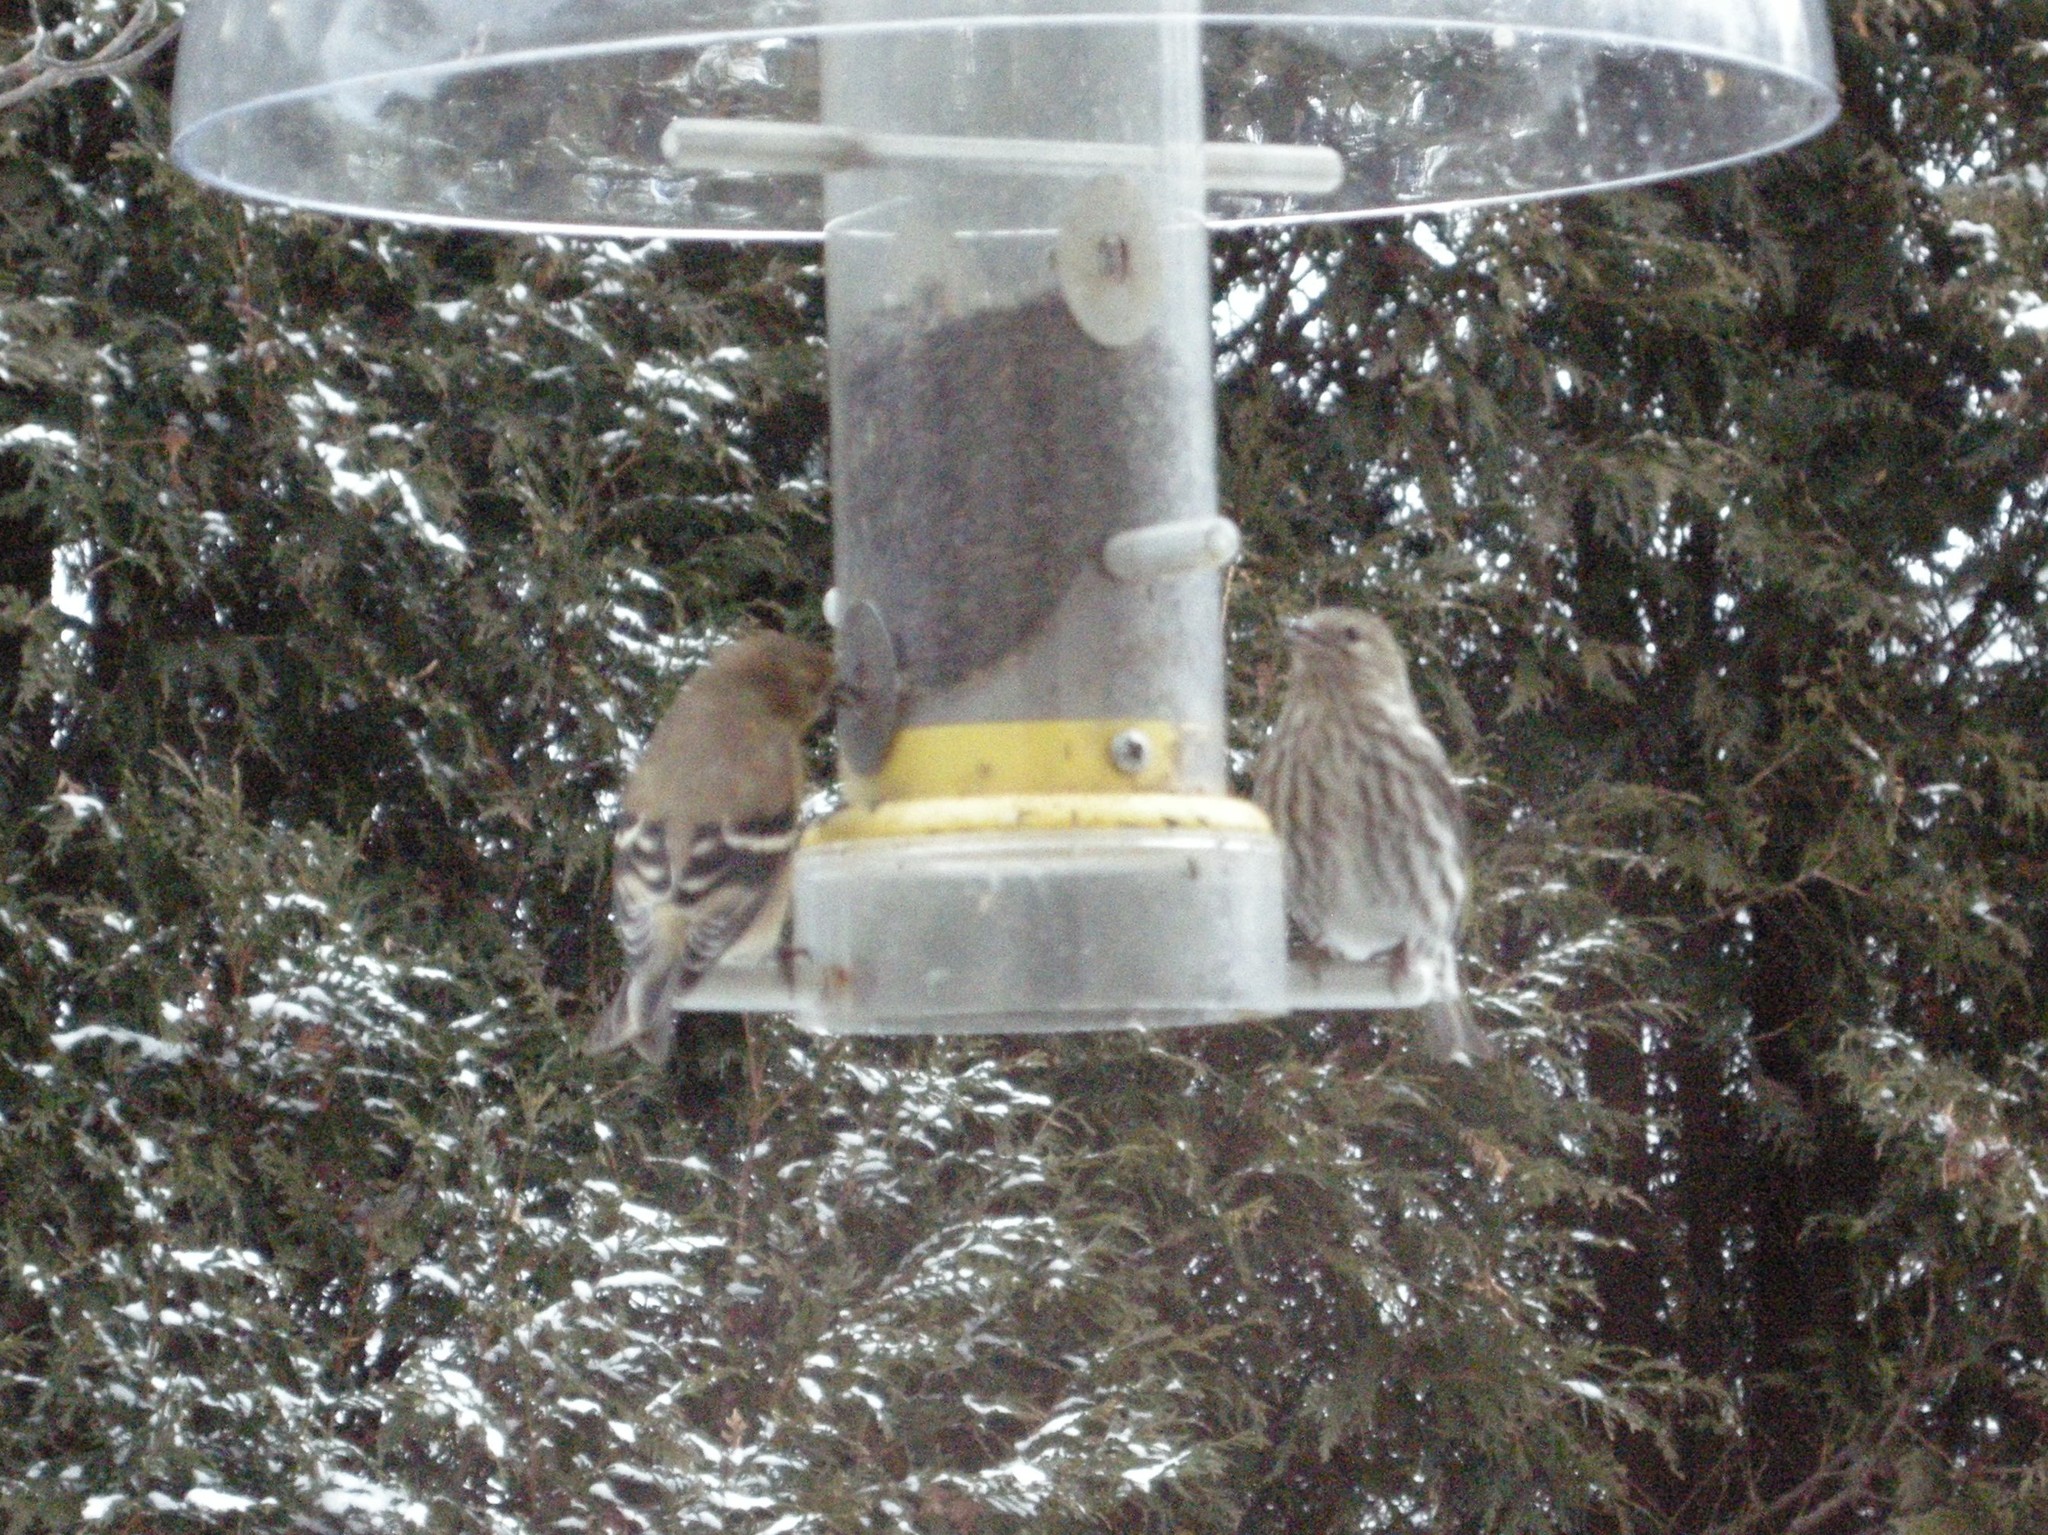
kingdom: Animalia
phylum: Chordata
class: Aves
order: Passeriformes
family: Fringillidae
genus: Spinus
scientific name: Spinus pinus
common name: Pine siskin
